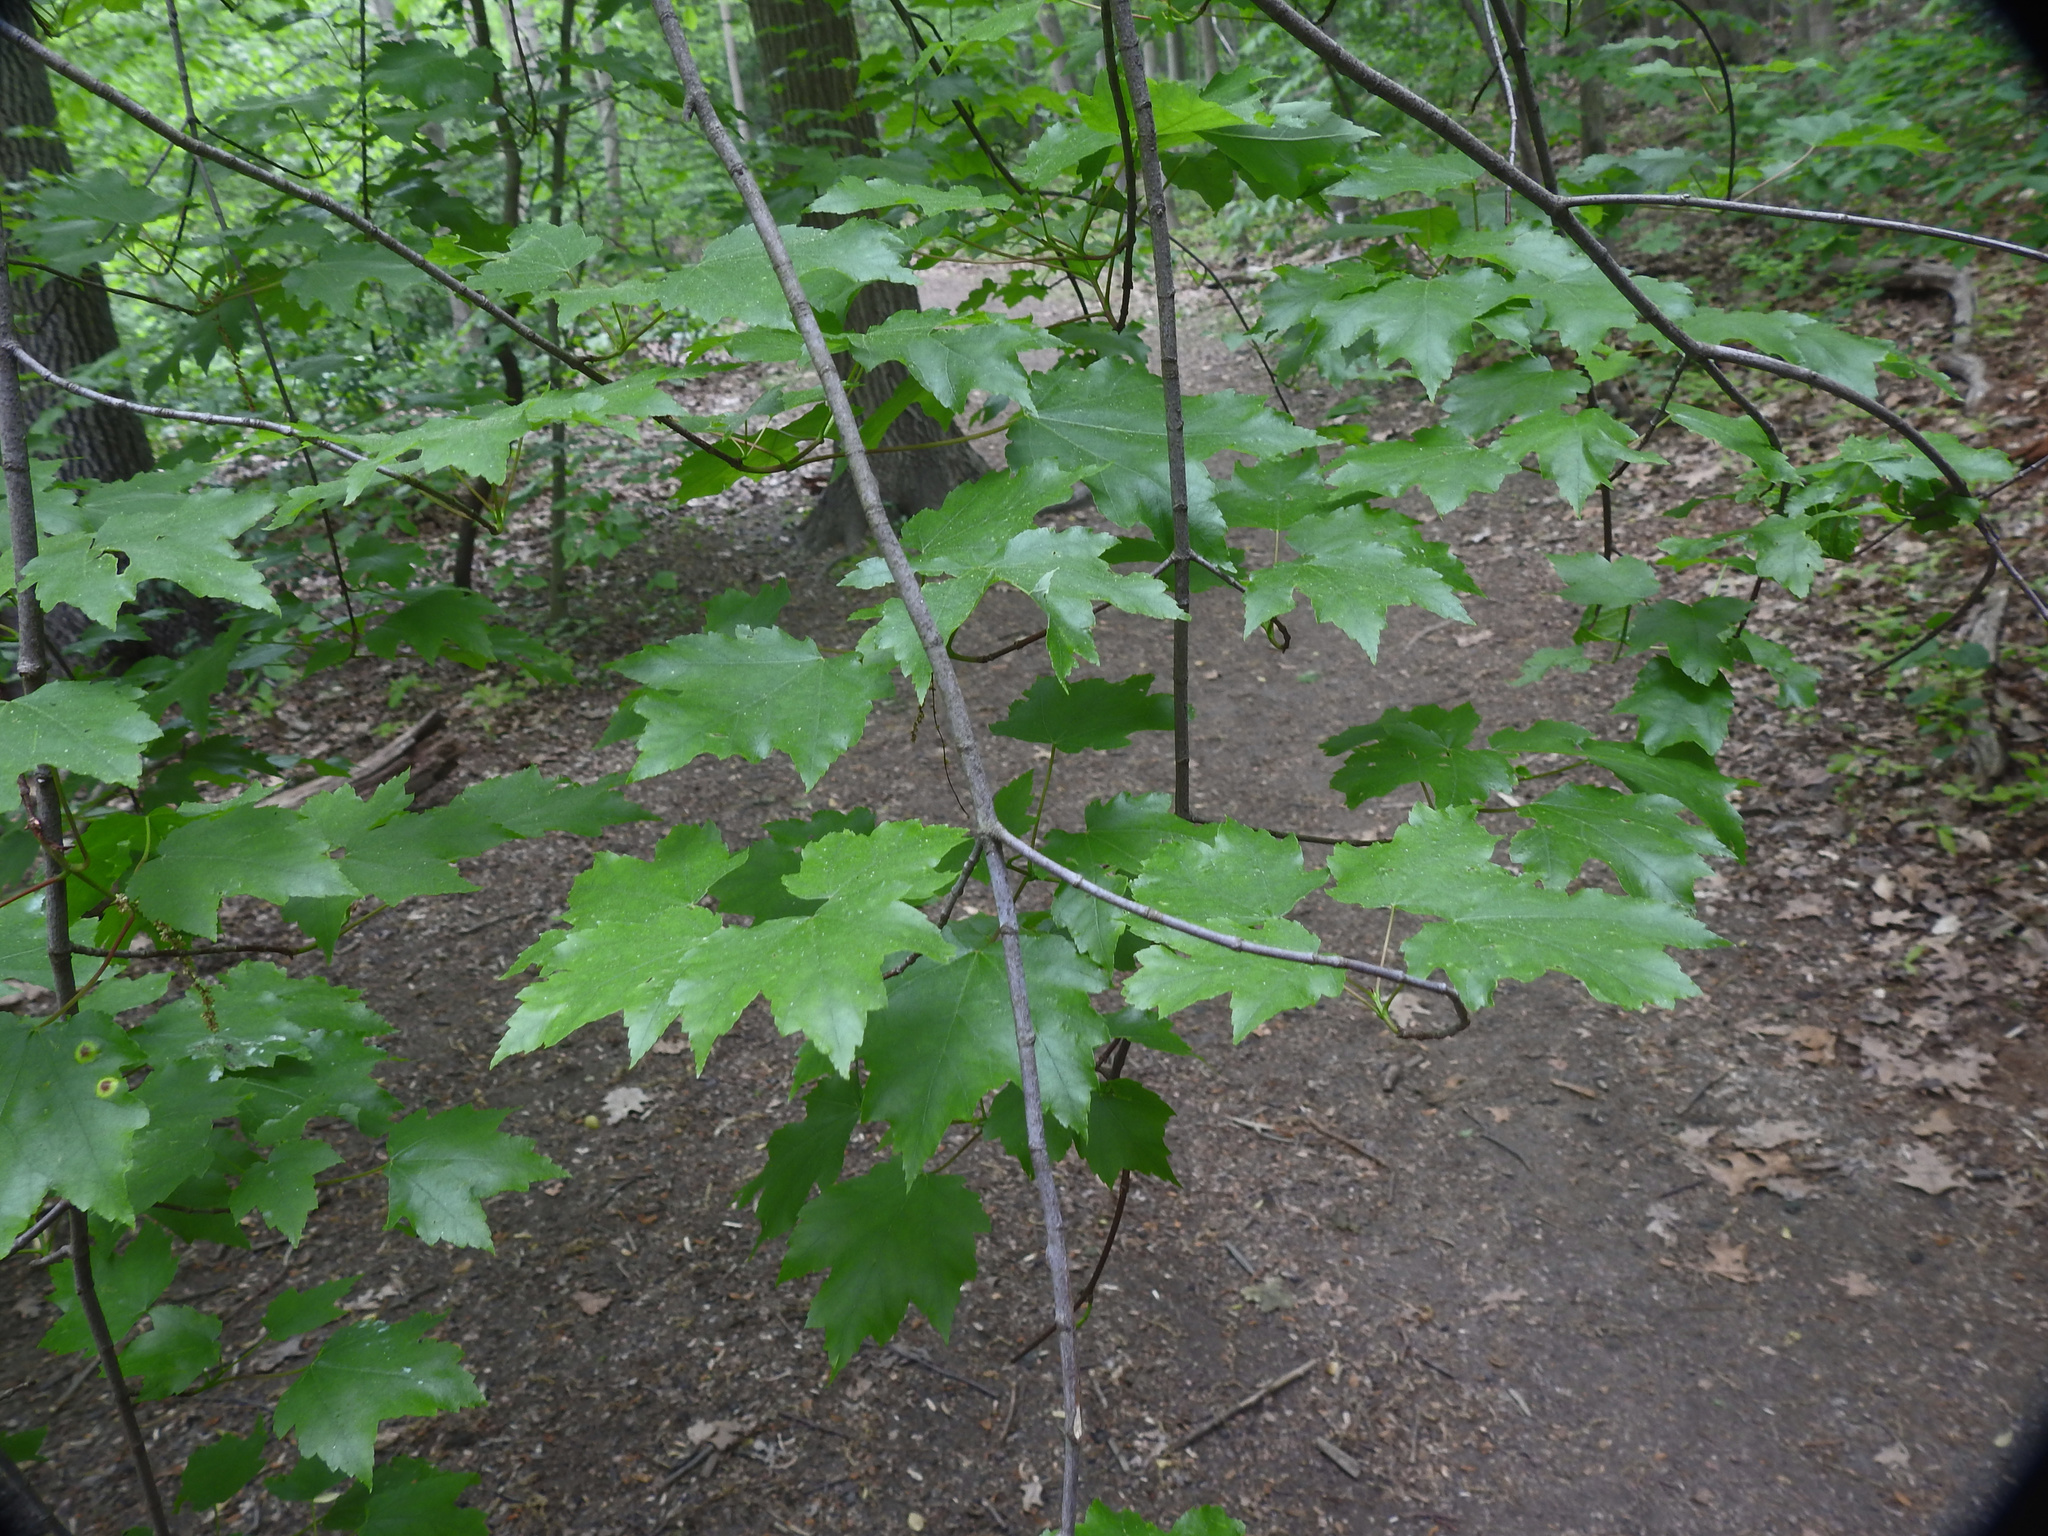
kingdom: Plantae
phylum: Tracheophyta
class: Magnoliopsida
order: Sapindales
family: Sapindaceae
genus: Acer
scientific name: Acer rubrum
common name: Red maple
